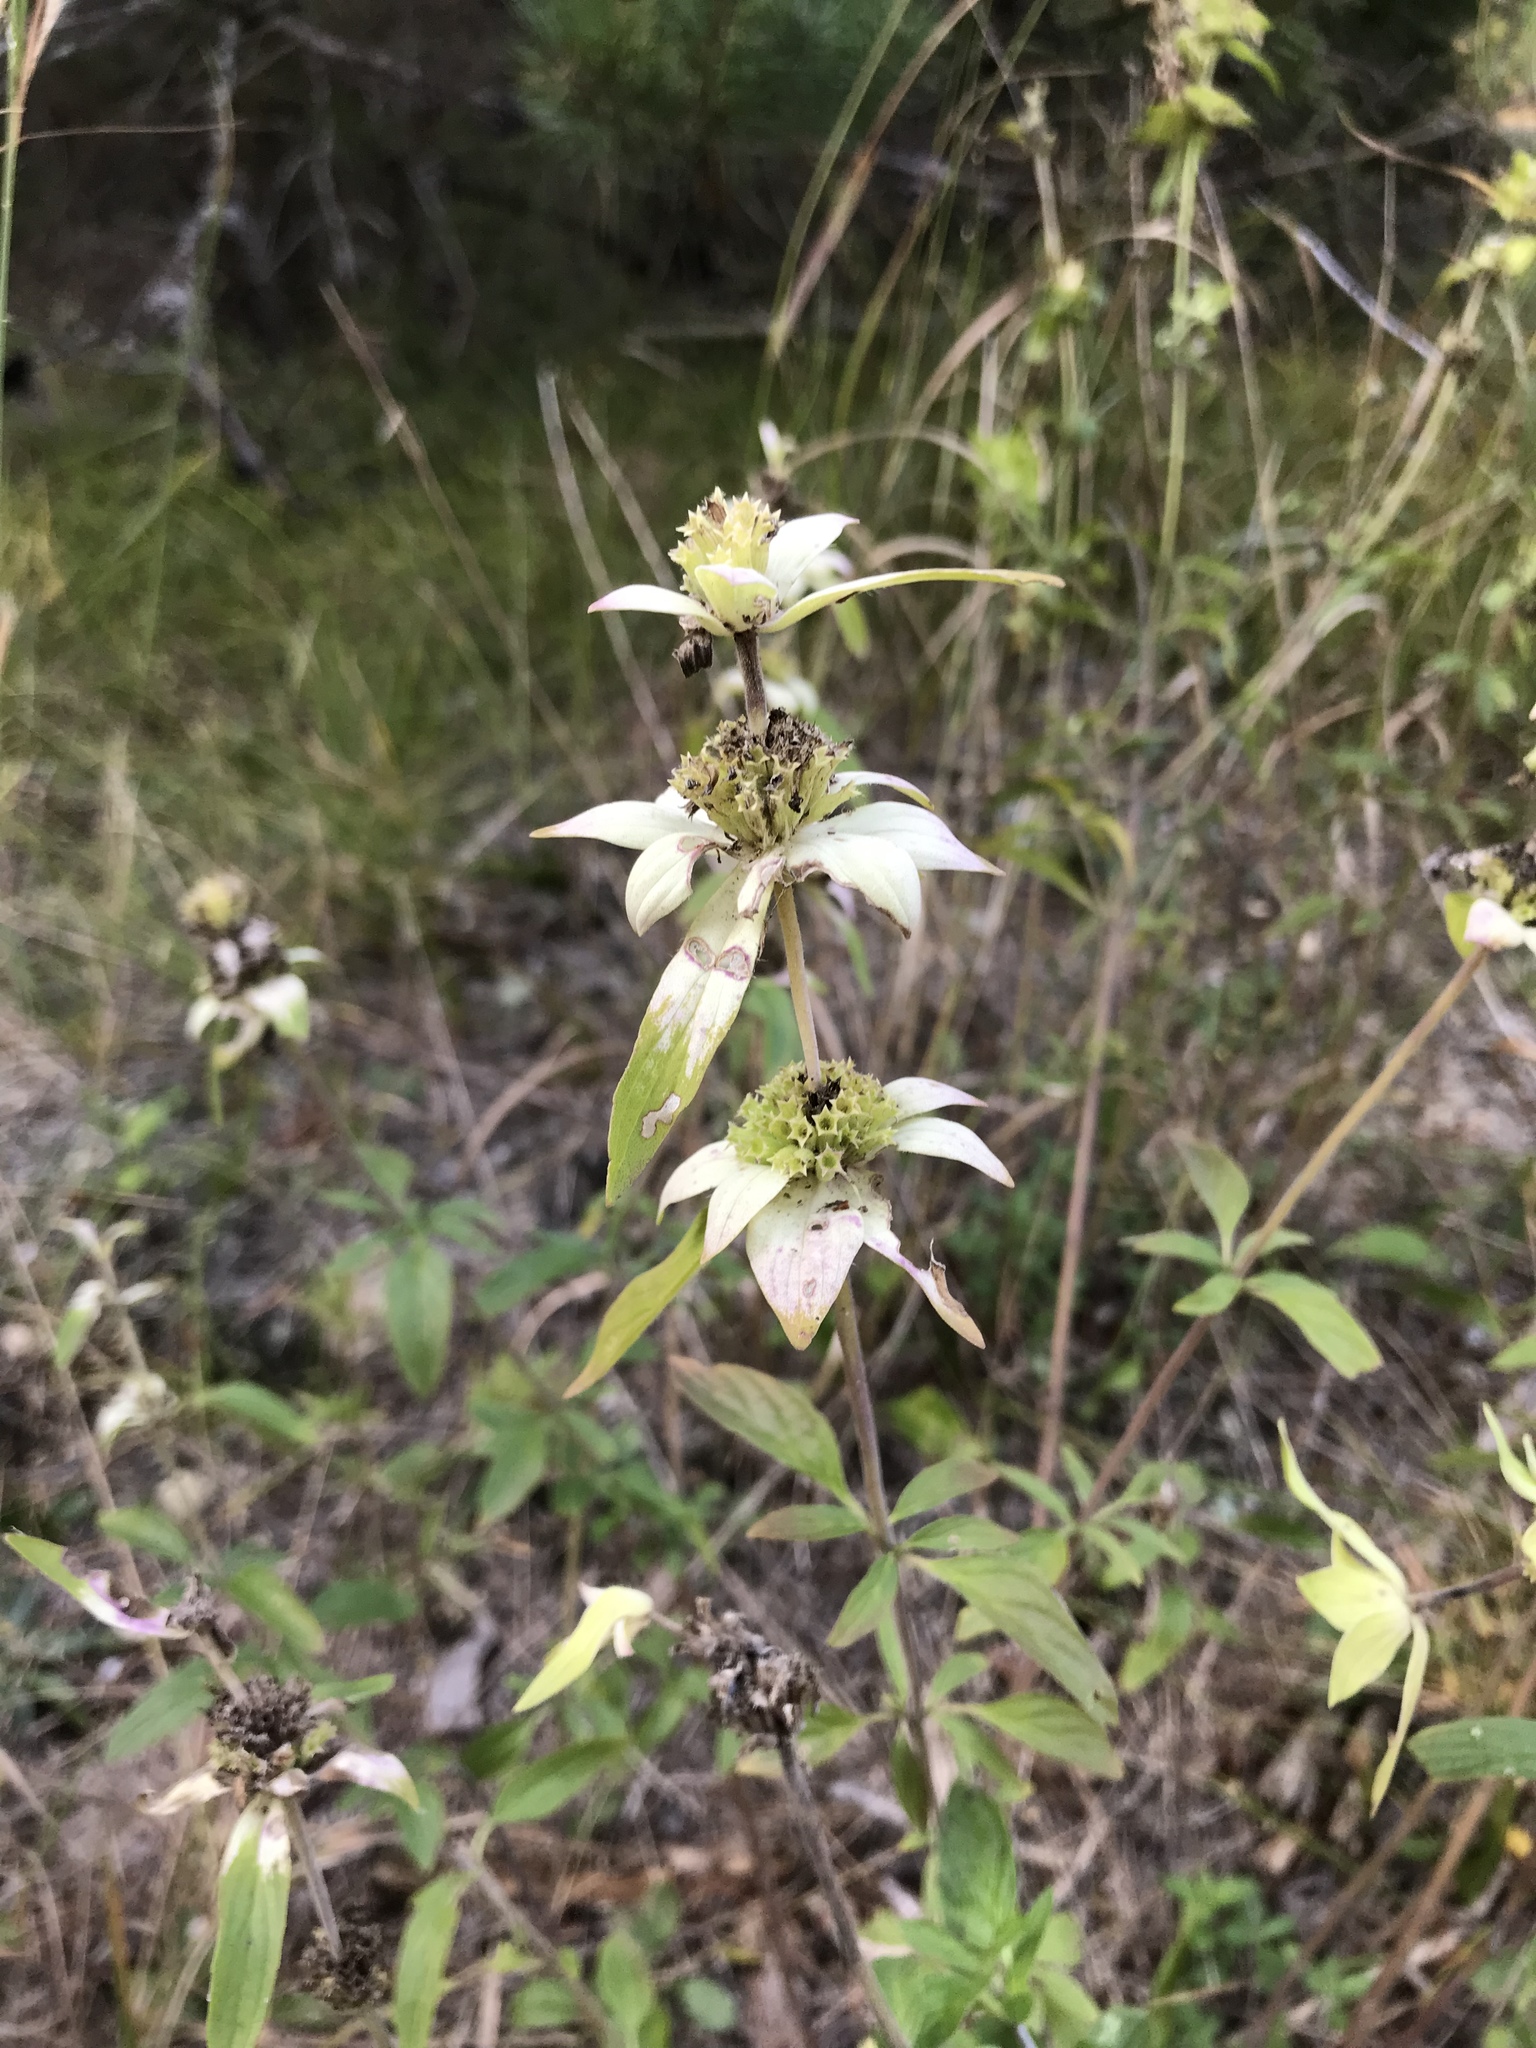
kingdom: Plantae
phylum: Tracheophyta
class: Magnoliopsida
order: Lamiales
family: Lamiaceae
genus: Monarda
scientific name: Monarda punctata
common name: Dotted monarda
